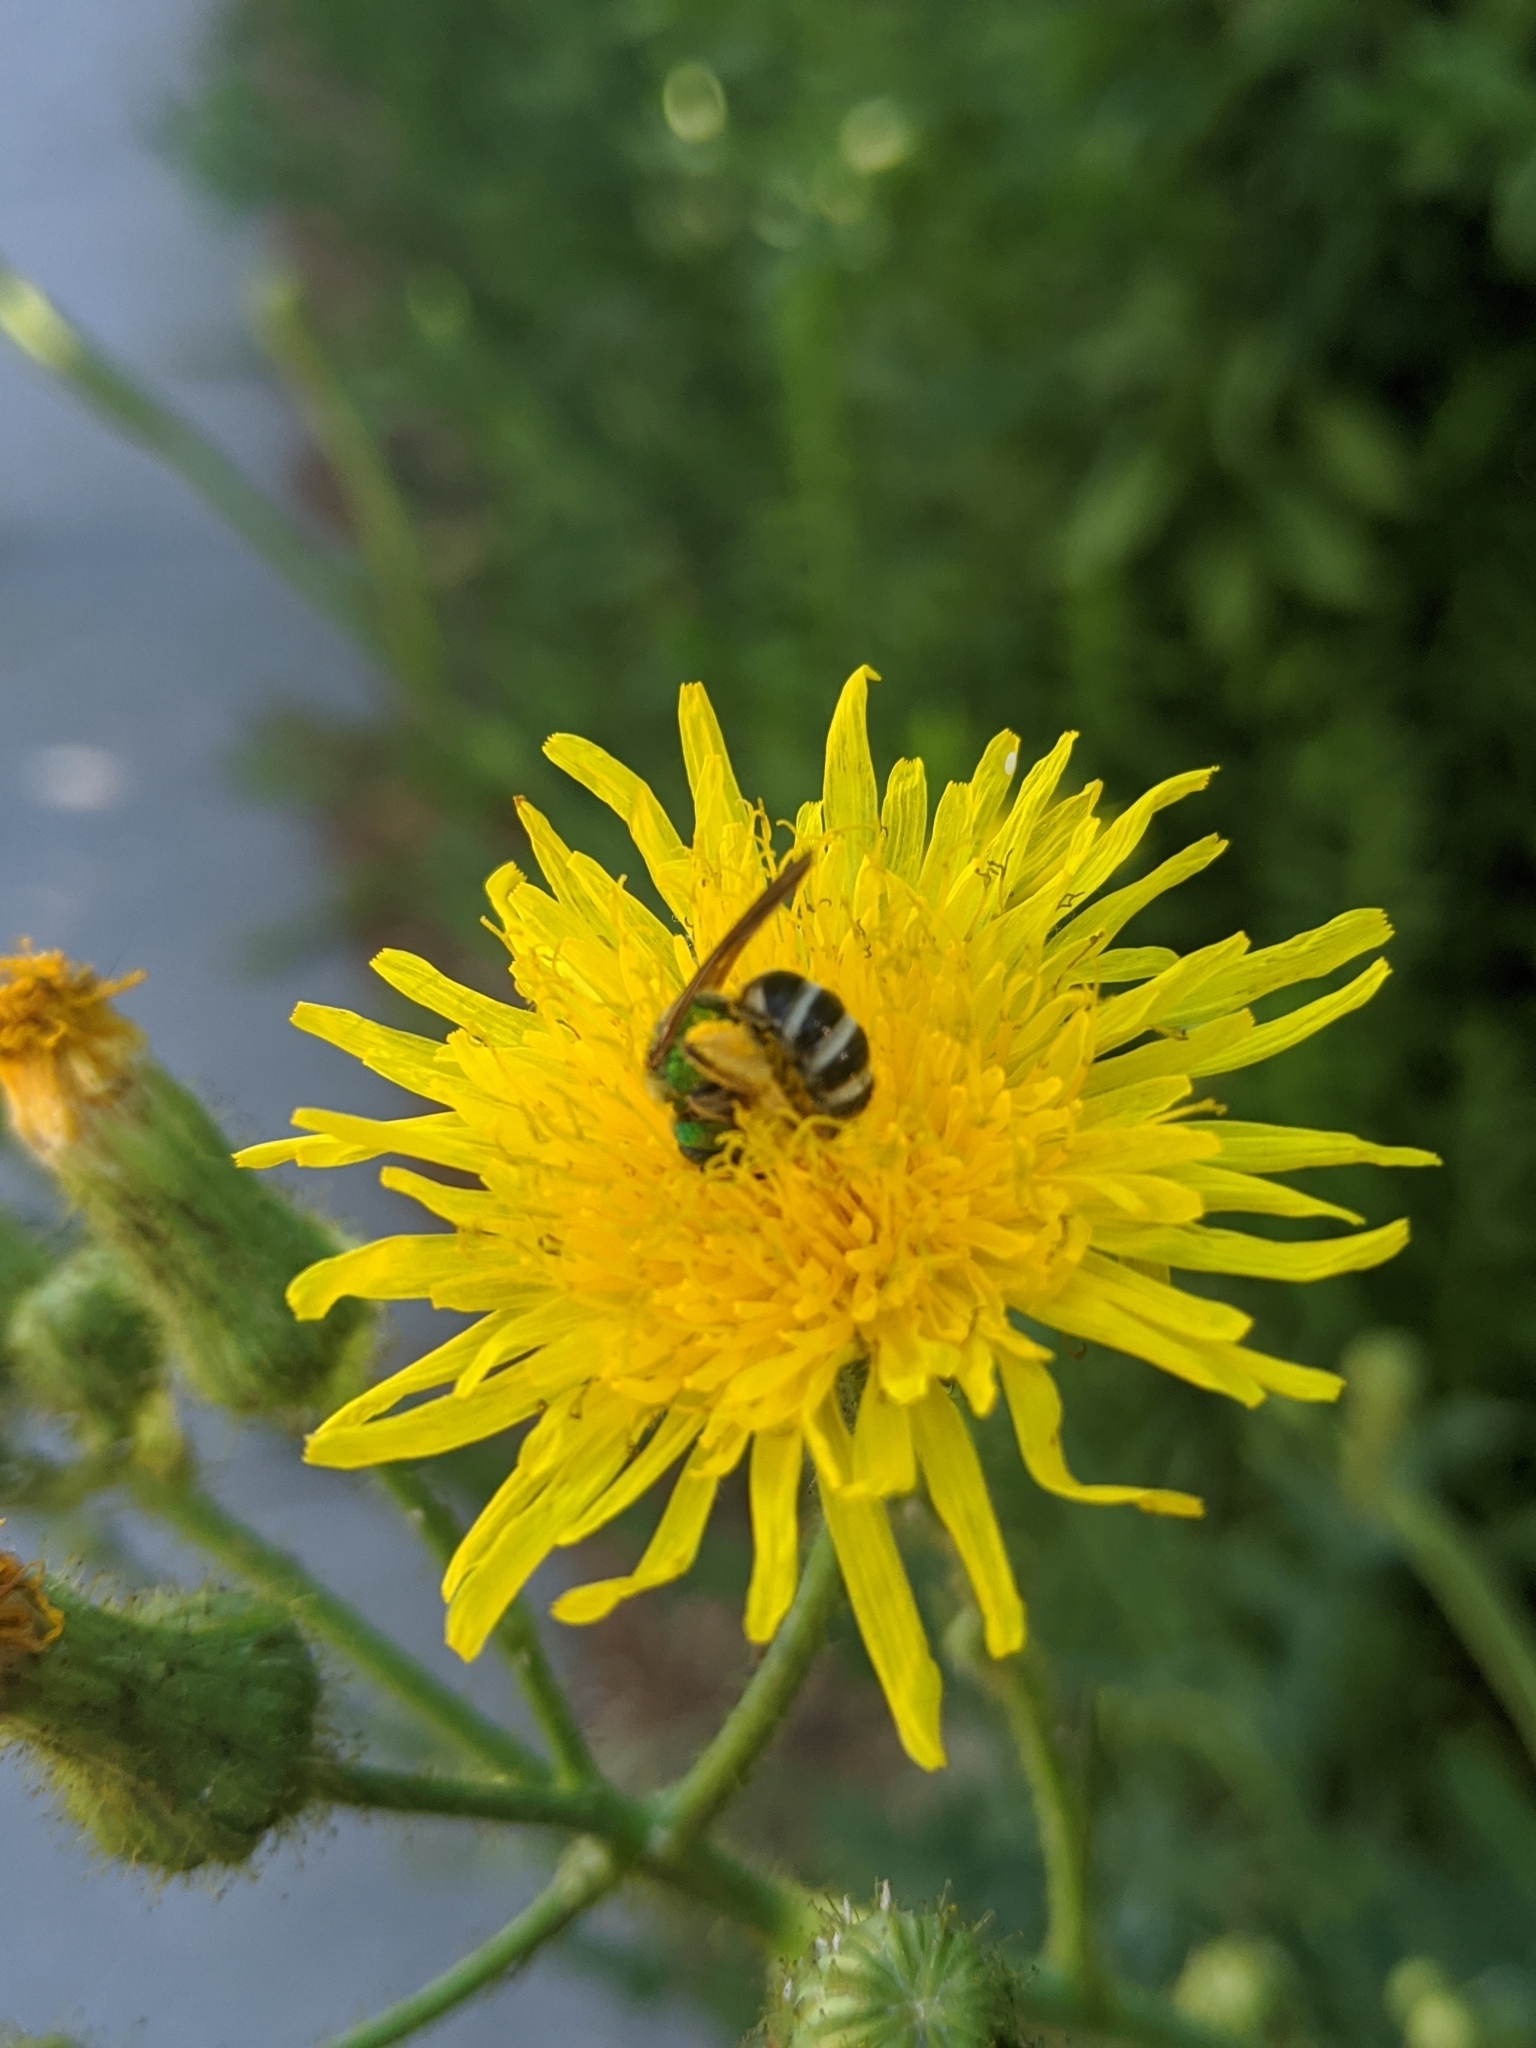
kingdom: Animalia
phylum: Arthropoda
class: Insecta
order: Hymenoptera
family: Halictidae
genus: Agapostemon
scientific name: Agapostemon virescens
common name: Bicolored striped sweat bee
